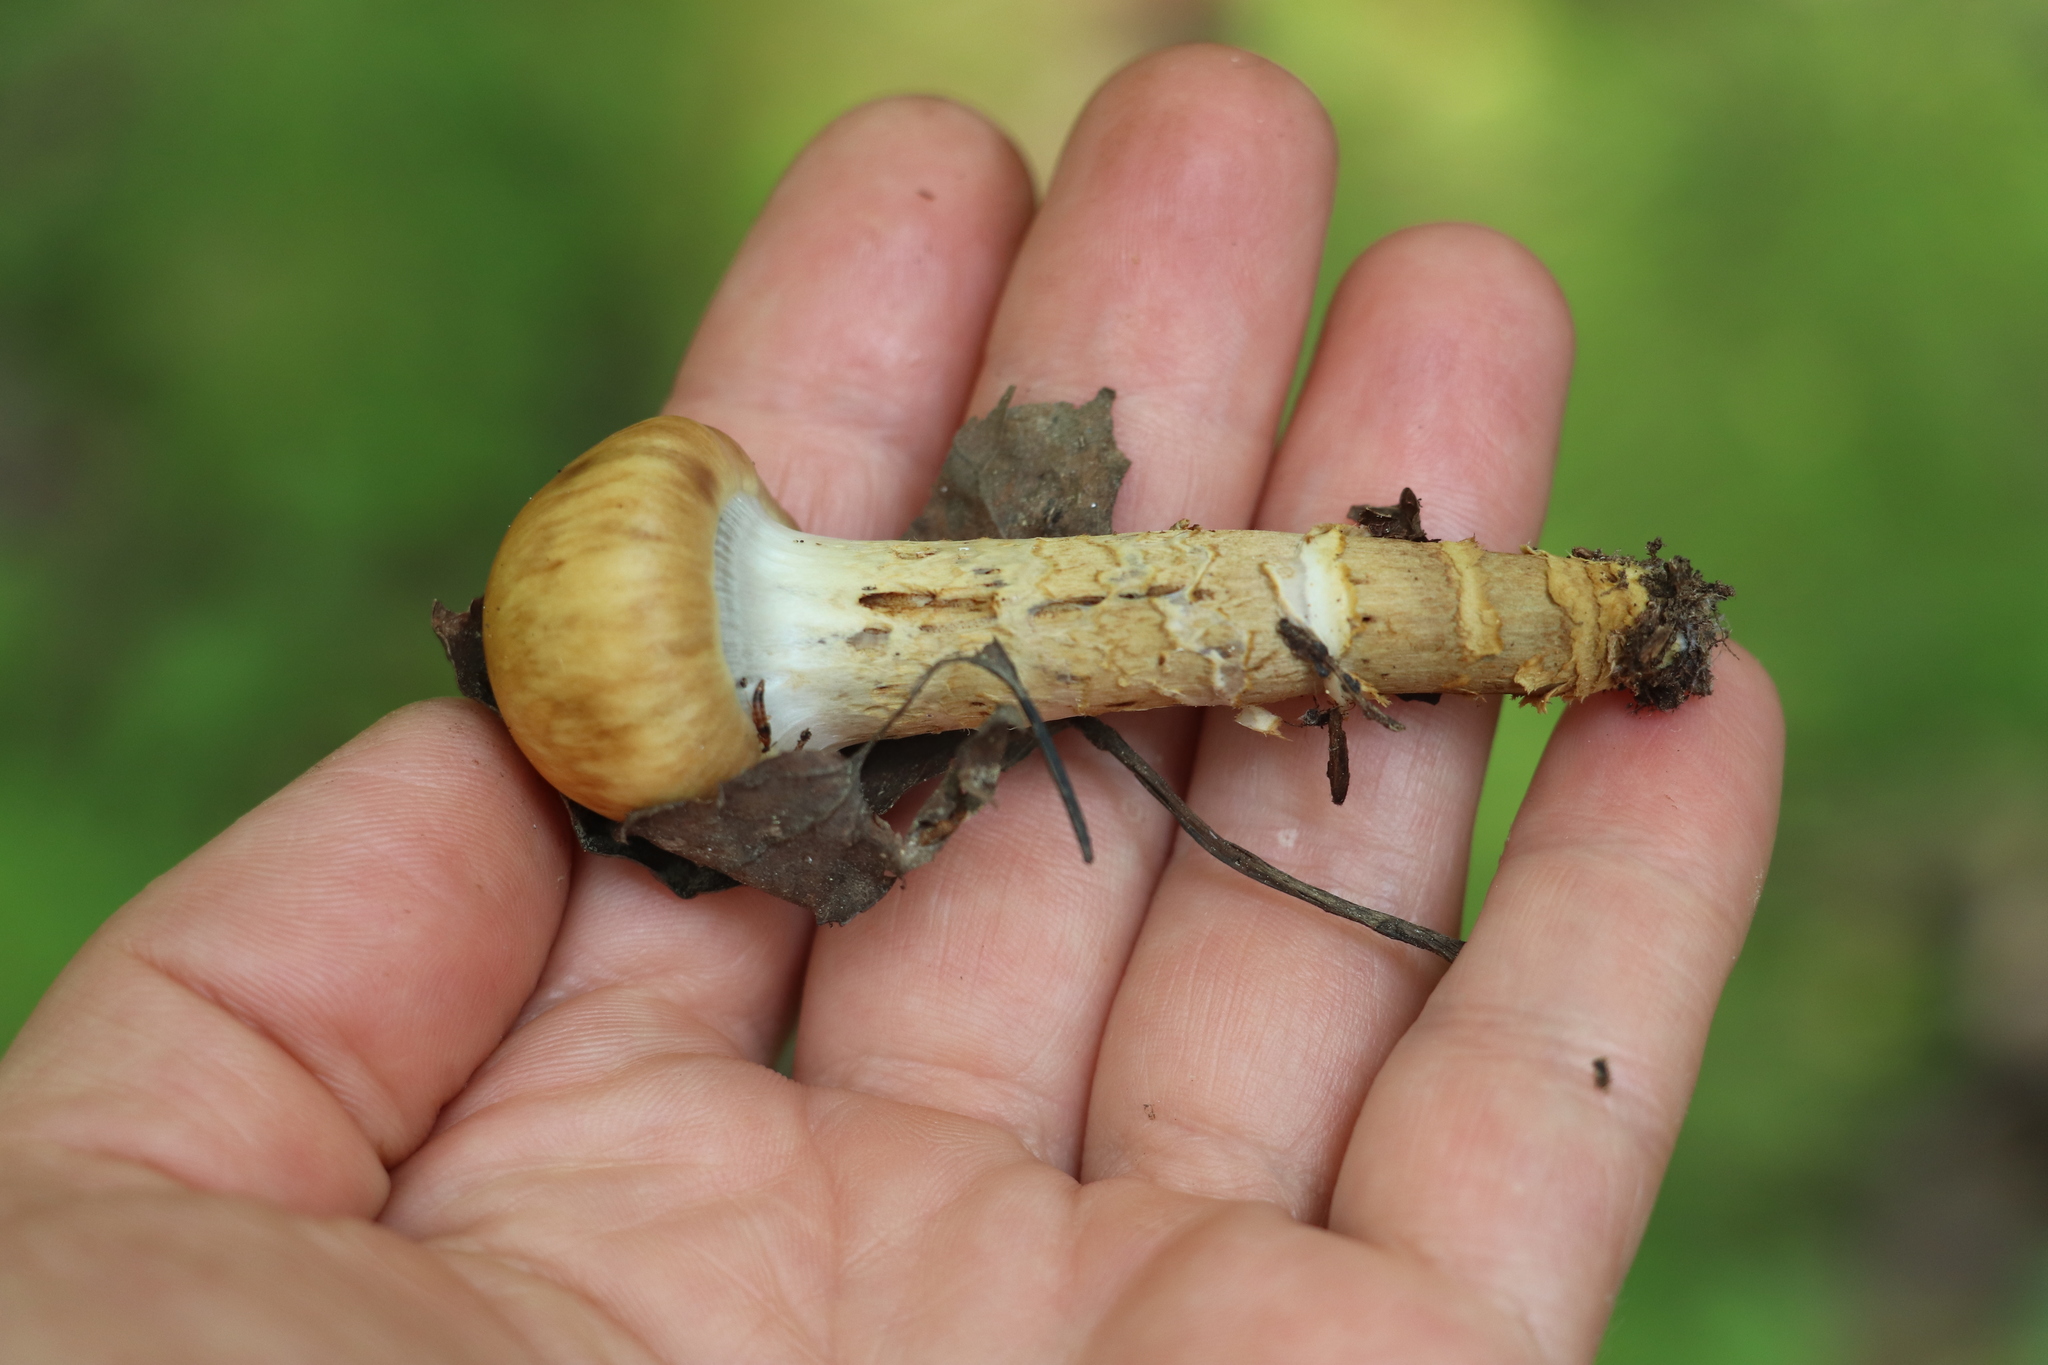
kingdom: Fungi
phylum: Basidiomycota
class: Agaricomycetes
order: Agaricales
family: Cortinariaceae
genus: Cortinarius
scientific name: Cortinarius trivialis
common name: Girdled webcap
